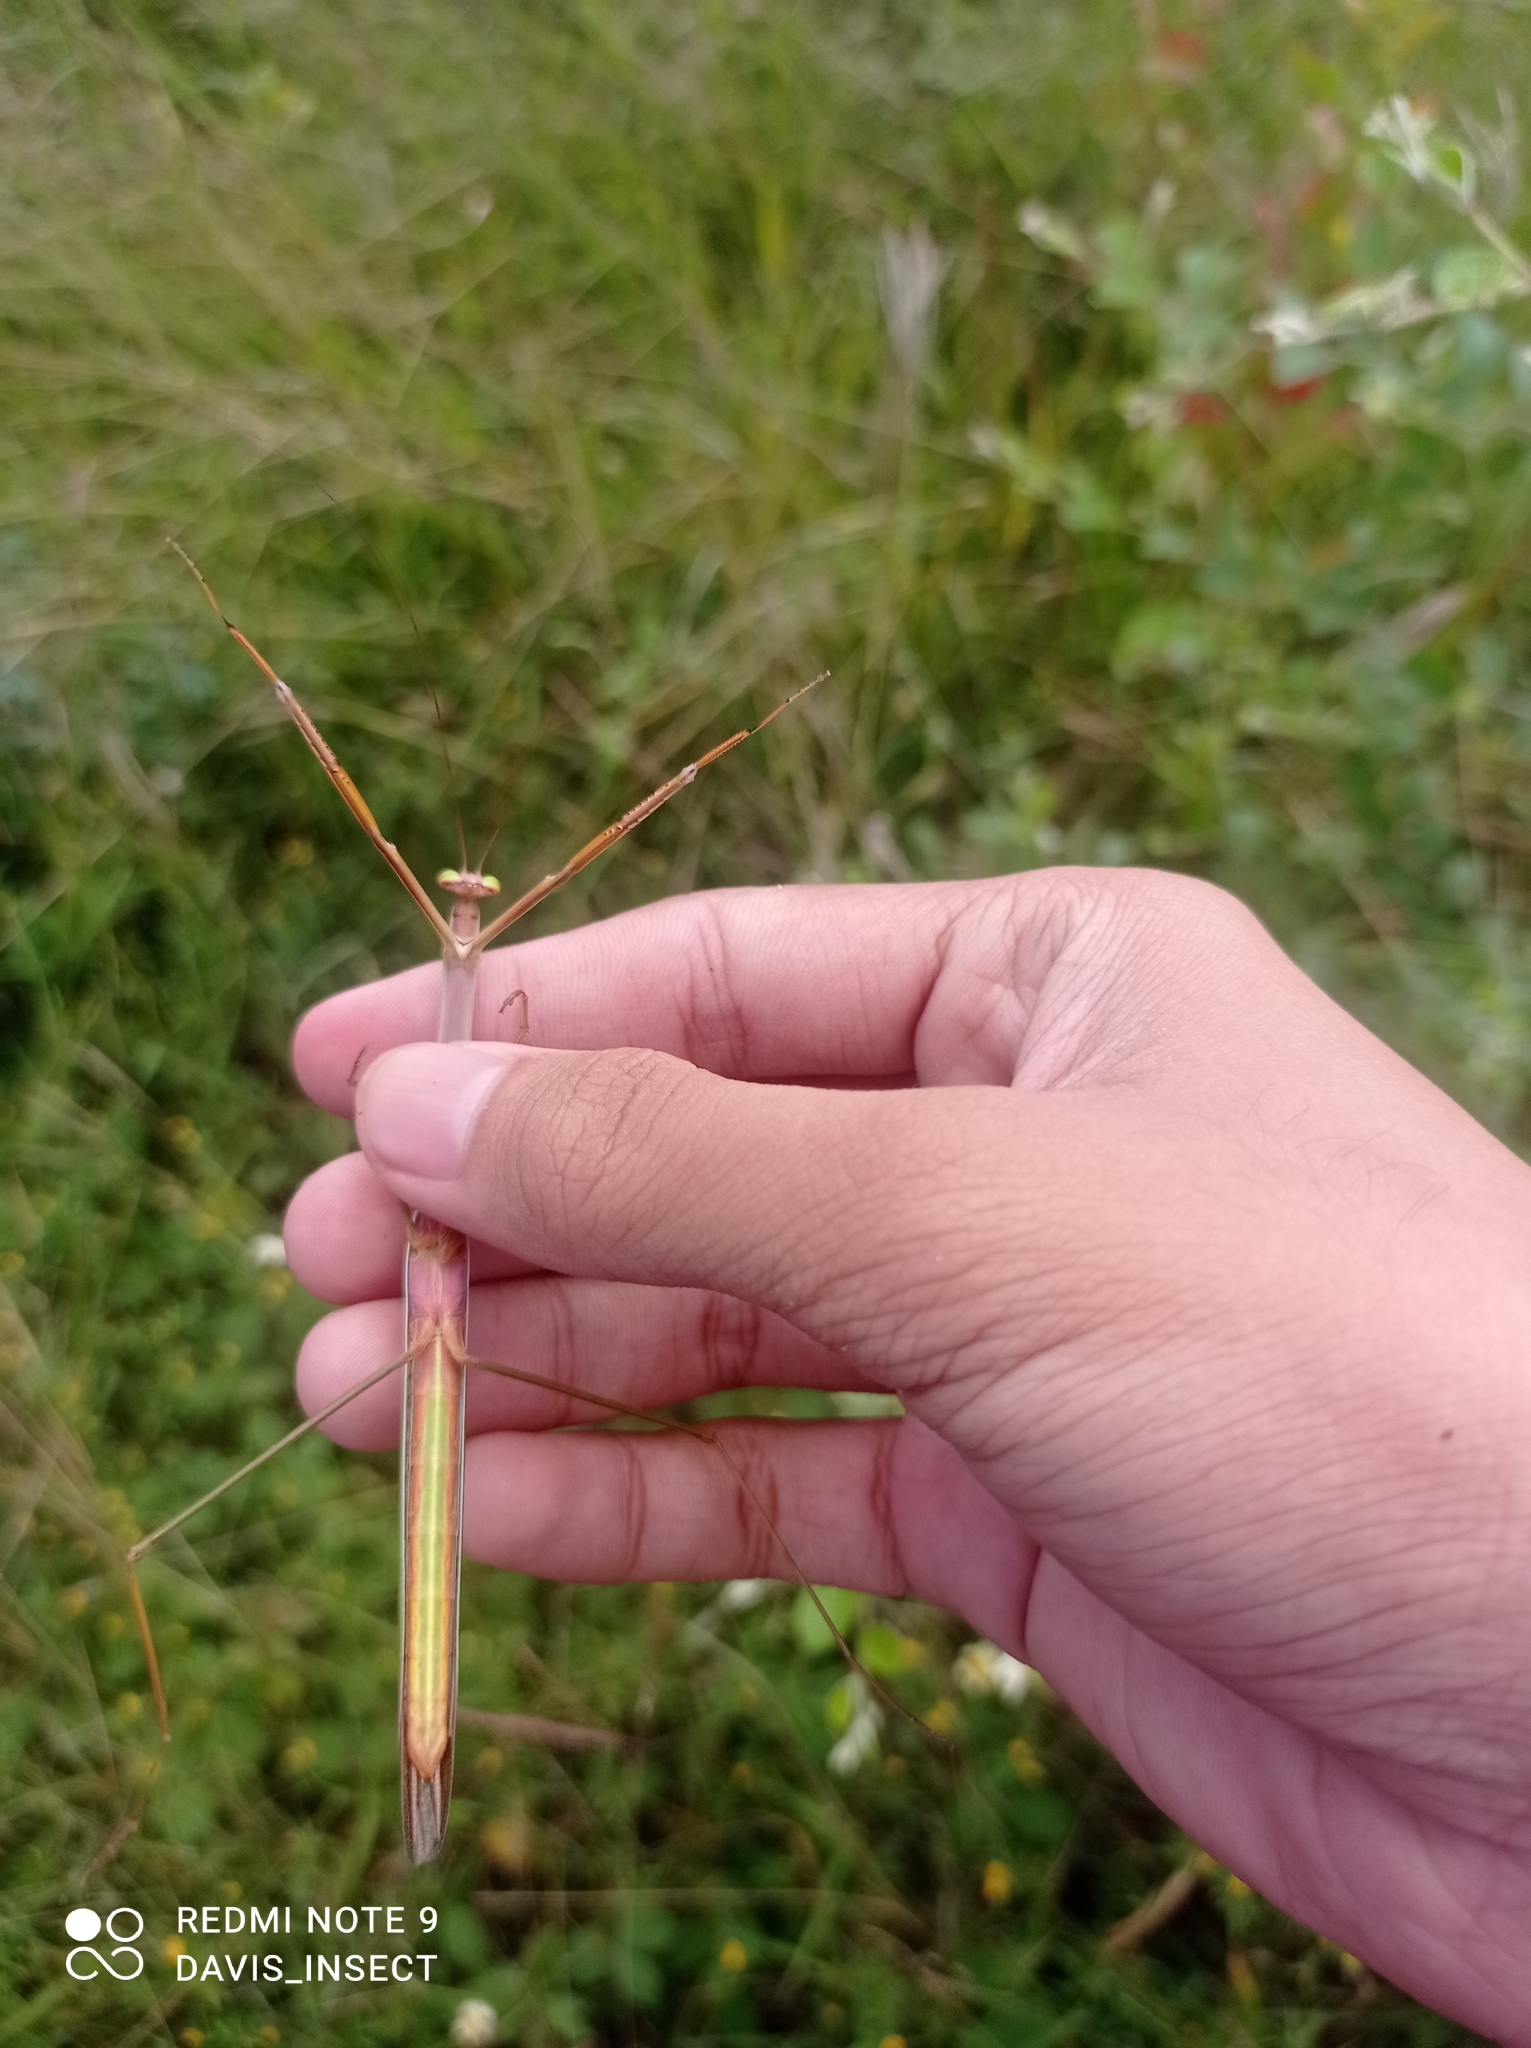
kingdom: Animalia
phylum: Arthropoda
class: Insecta
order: Mantodea
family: Mantidae
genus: Tenodera
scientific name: Tenodera
